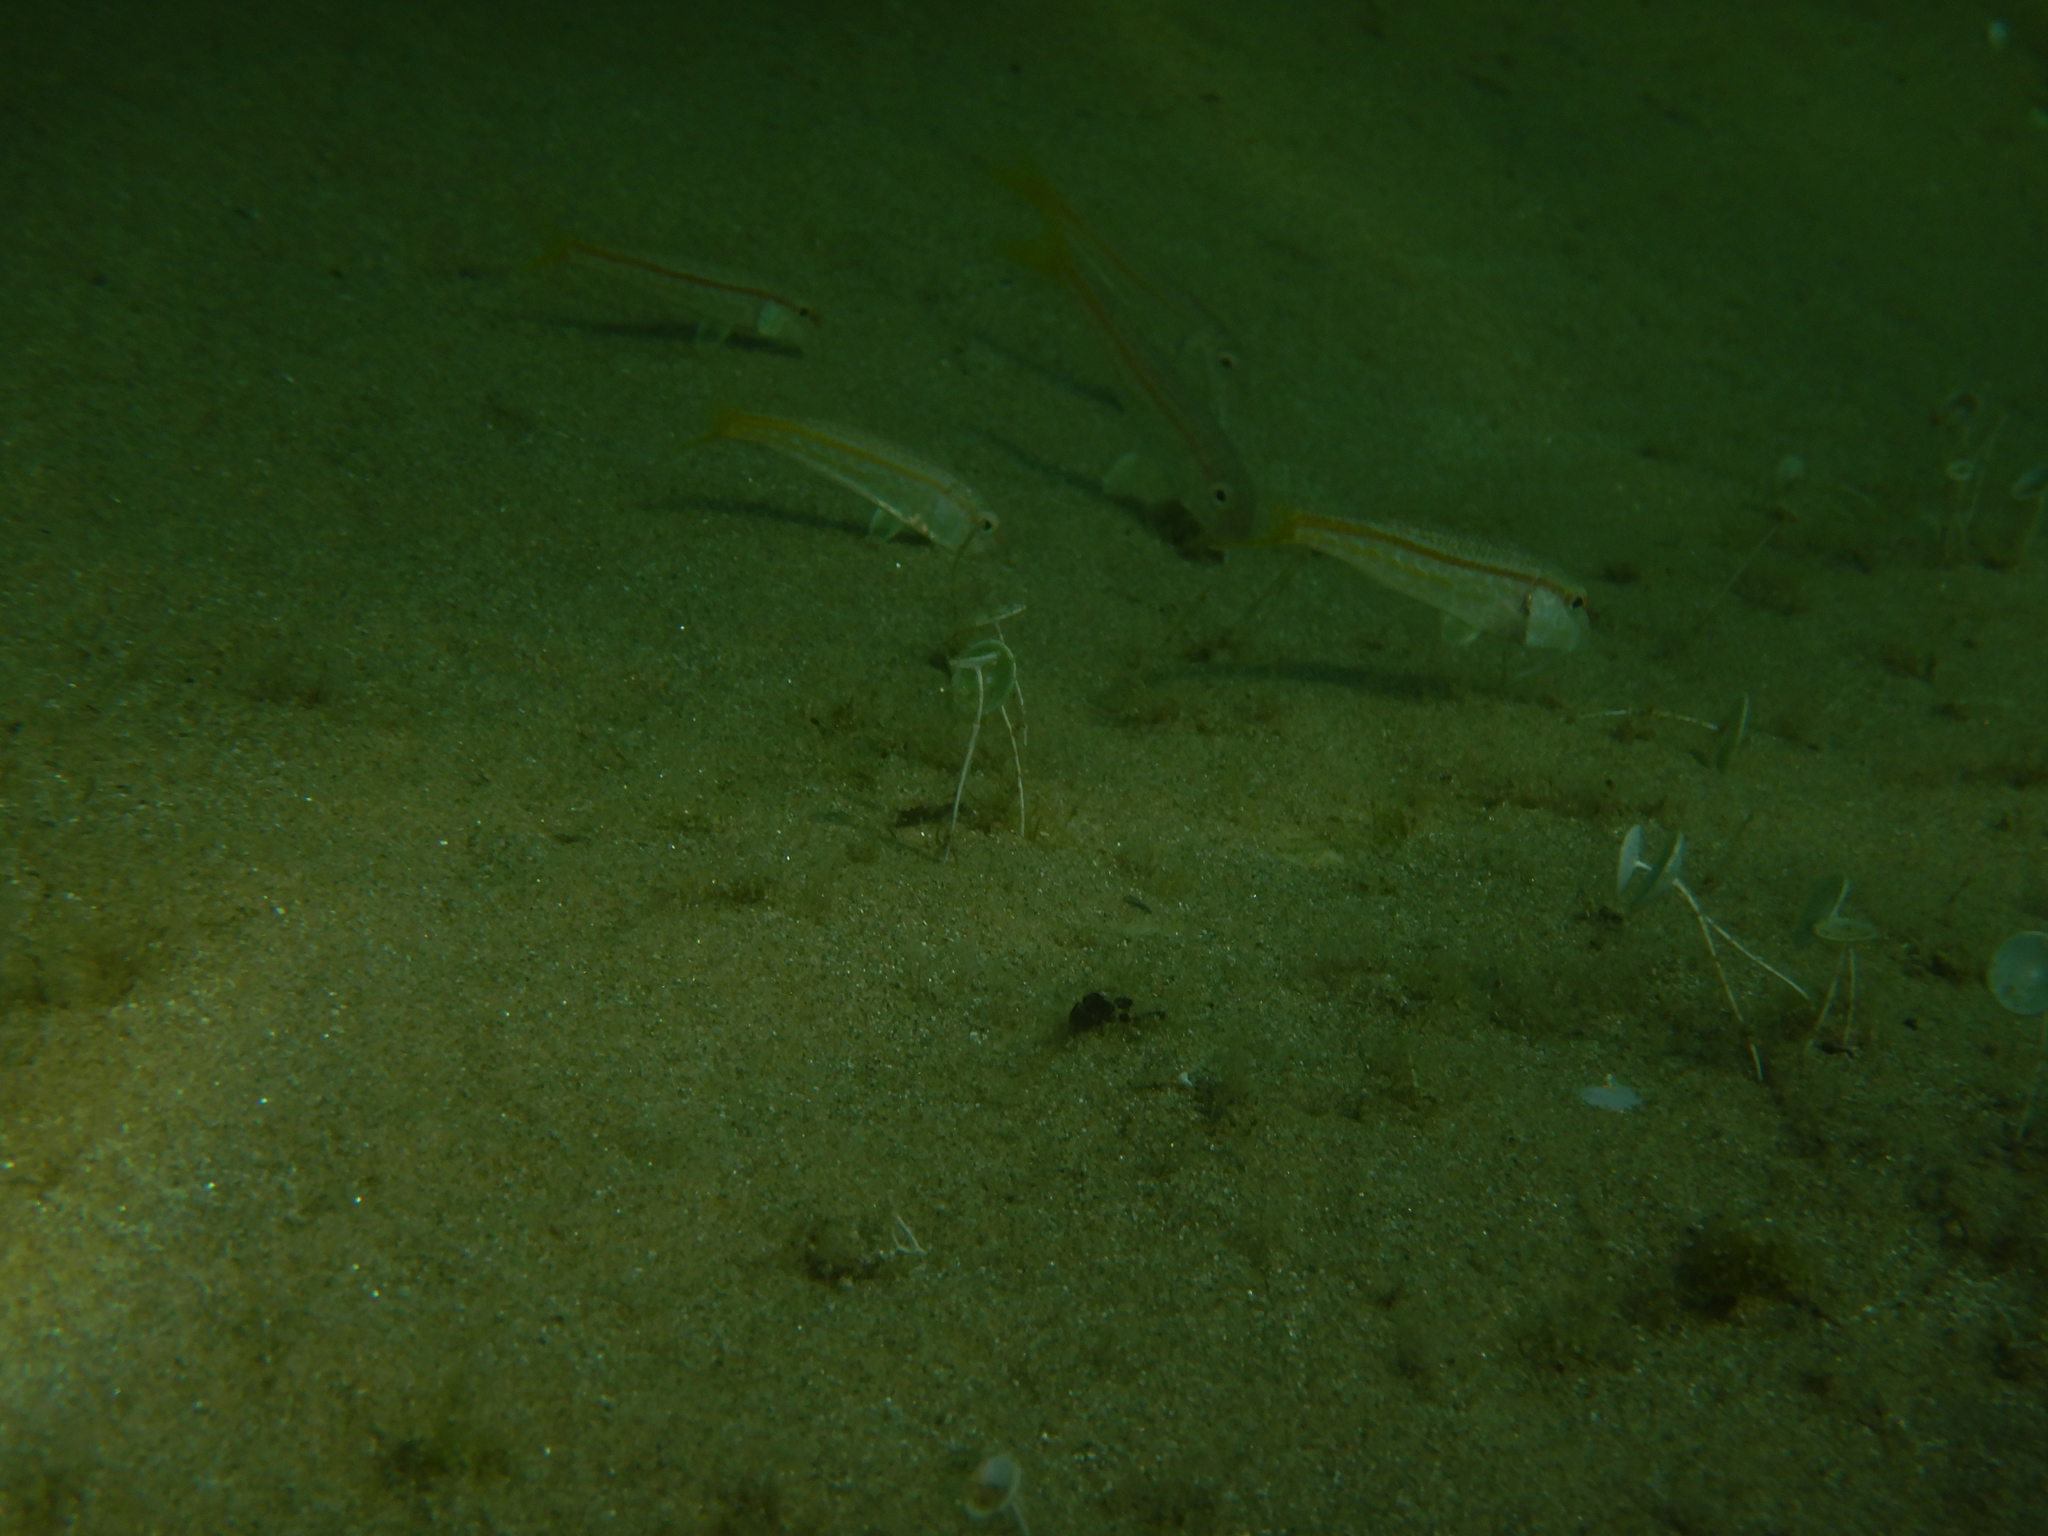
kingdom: Animalia
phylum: Chordata
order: Perciformes
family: Mullidae
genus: Mullus
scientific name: Mullus barbatus
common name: Blunt-snouted mullet
